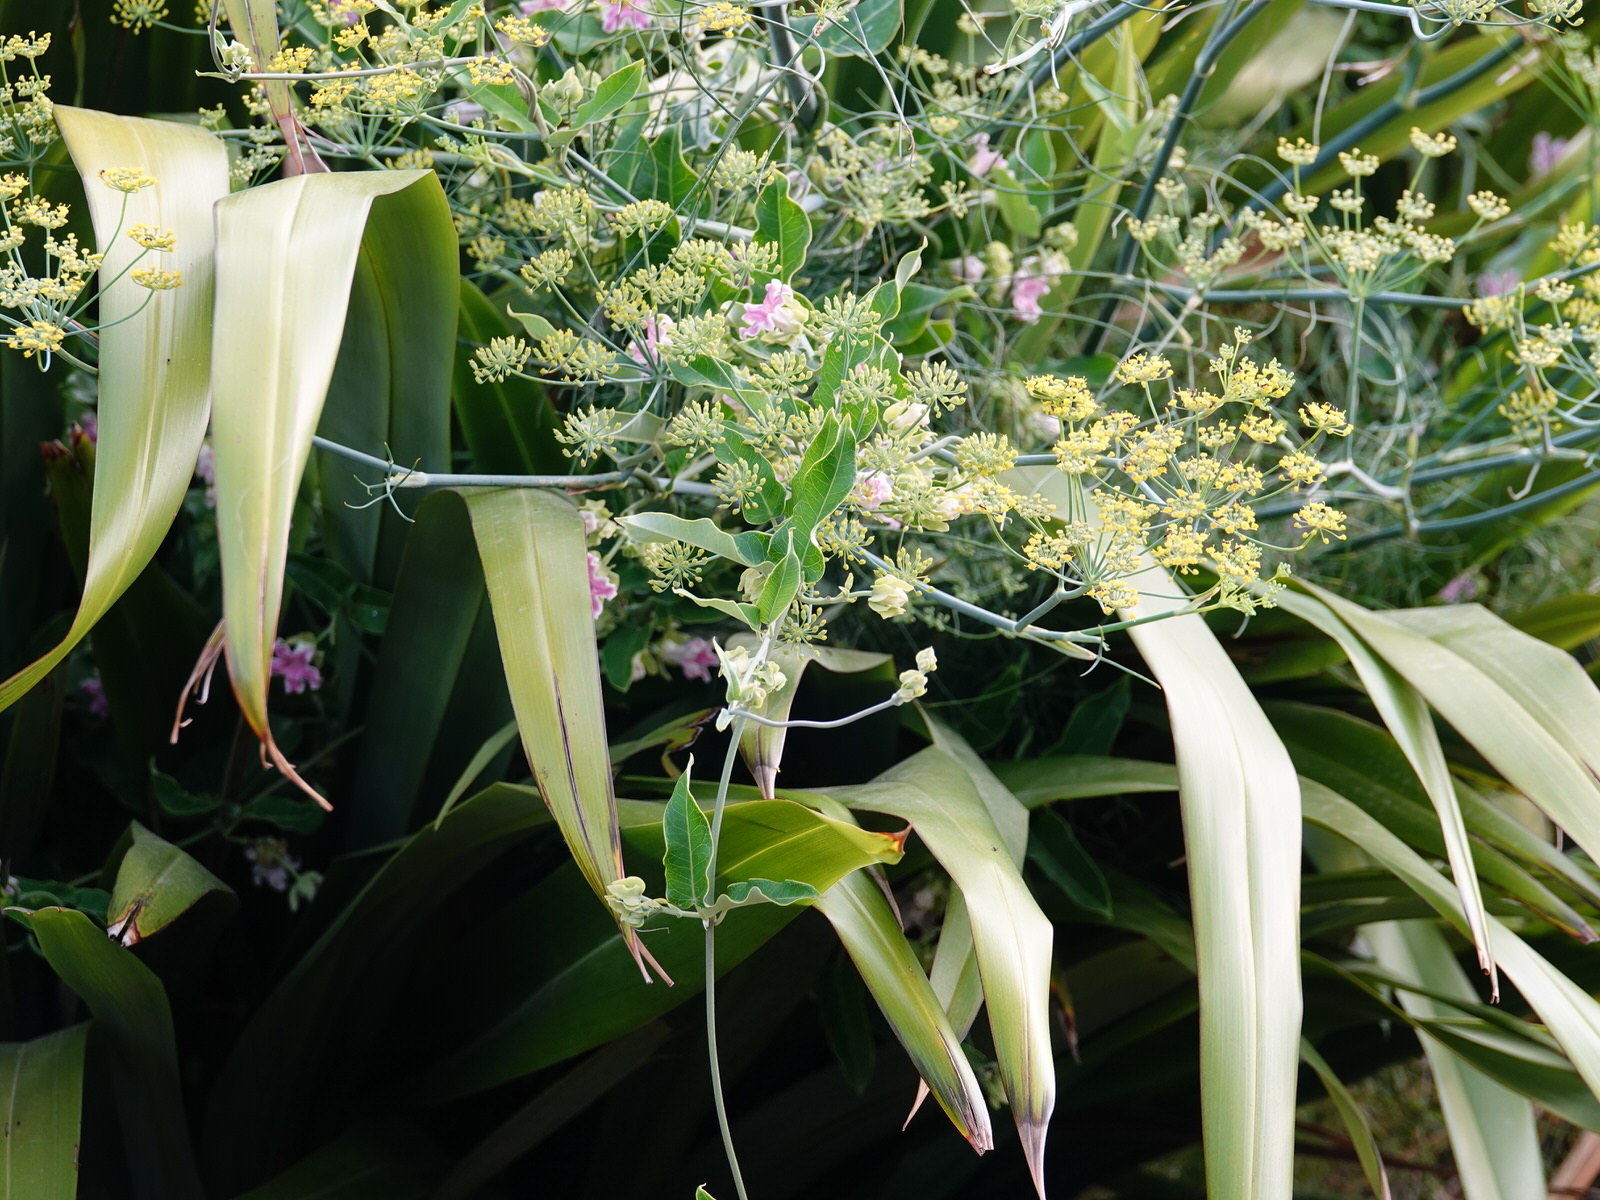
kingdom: Plantae
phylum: Tracheophyta
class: Magnoliopsida
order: Gentianales
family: Apocynaceae
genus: Araujia
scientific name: Araujia sericifera
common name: White bladderflower
